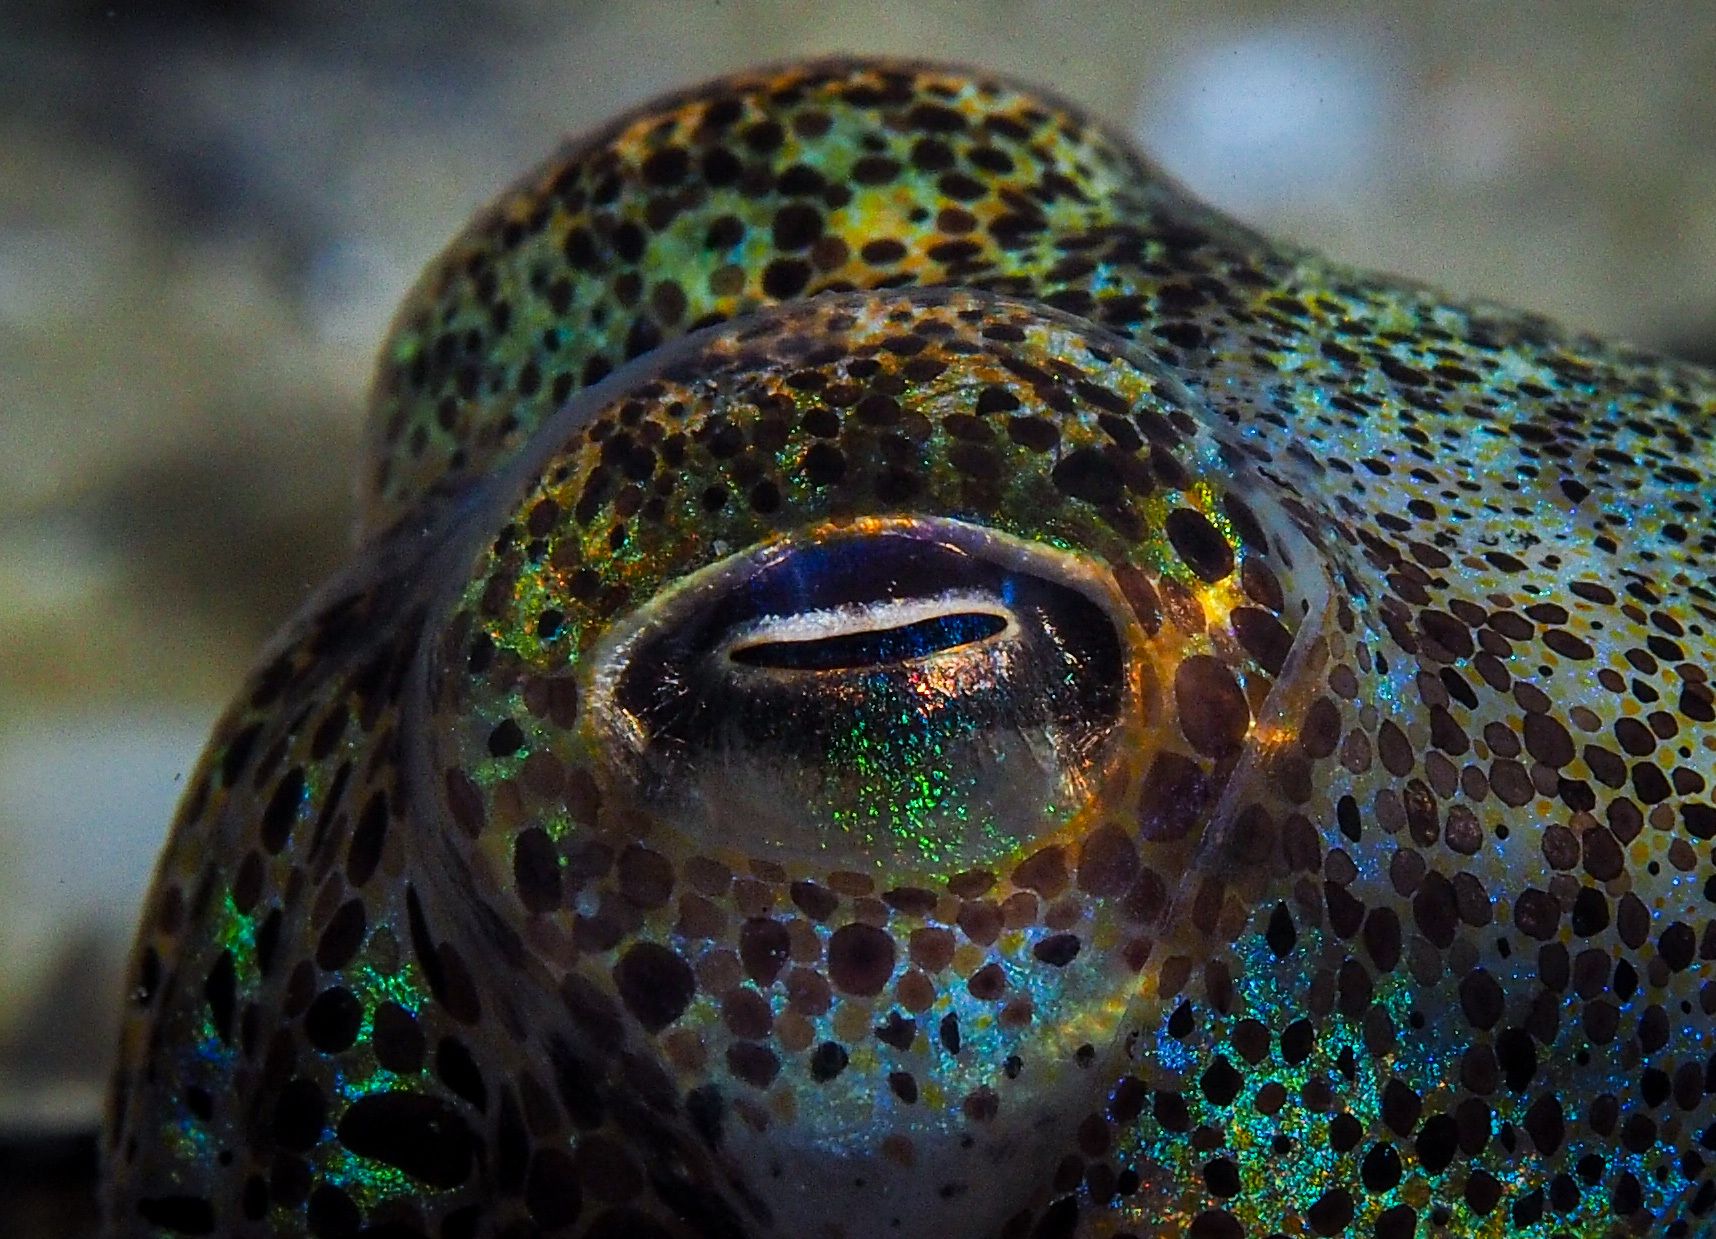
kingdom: Animalia
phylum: Mollusca
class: Cephalopoda
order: Sepiida
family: Sepiolidae
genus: Euprymna
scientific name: Euprymna tasmanica
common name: Southern bobtail squid
